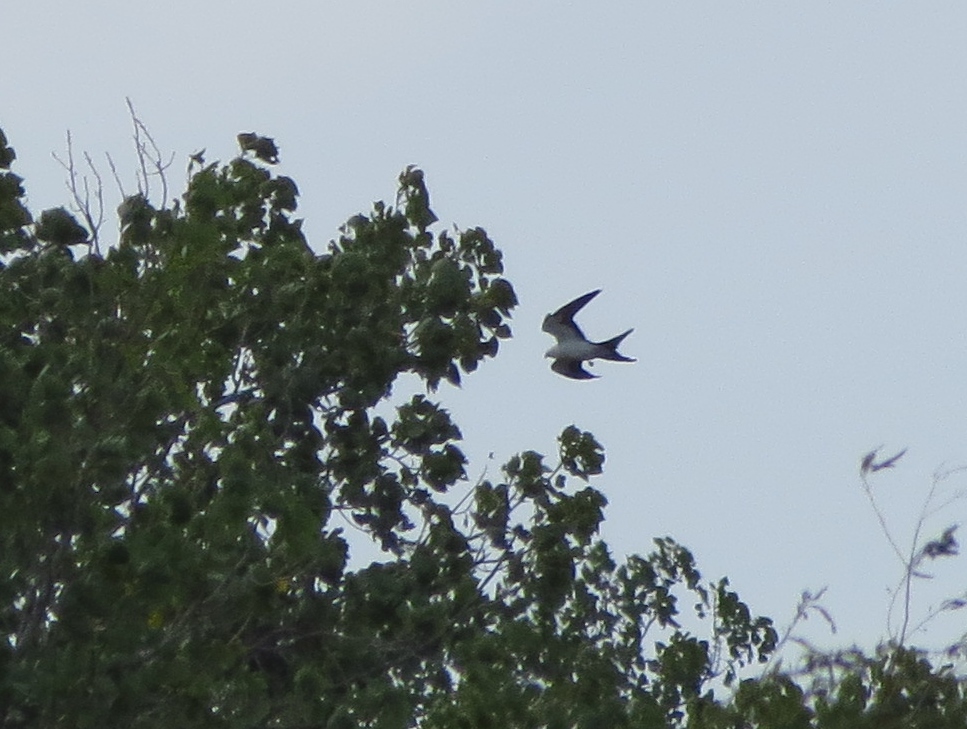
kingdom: Animalia
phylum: Chordata
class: Aves
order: Accipitriformes
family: Accipitridae
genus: Elanoides
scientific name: Elanoides forficatus
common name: Swallow-tailed kite
